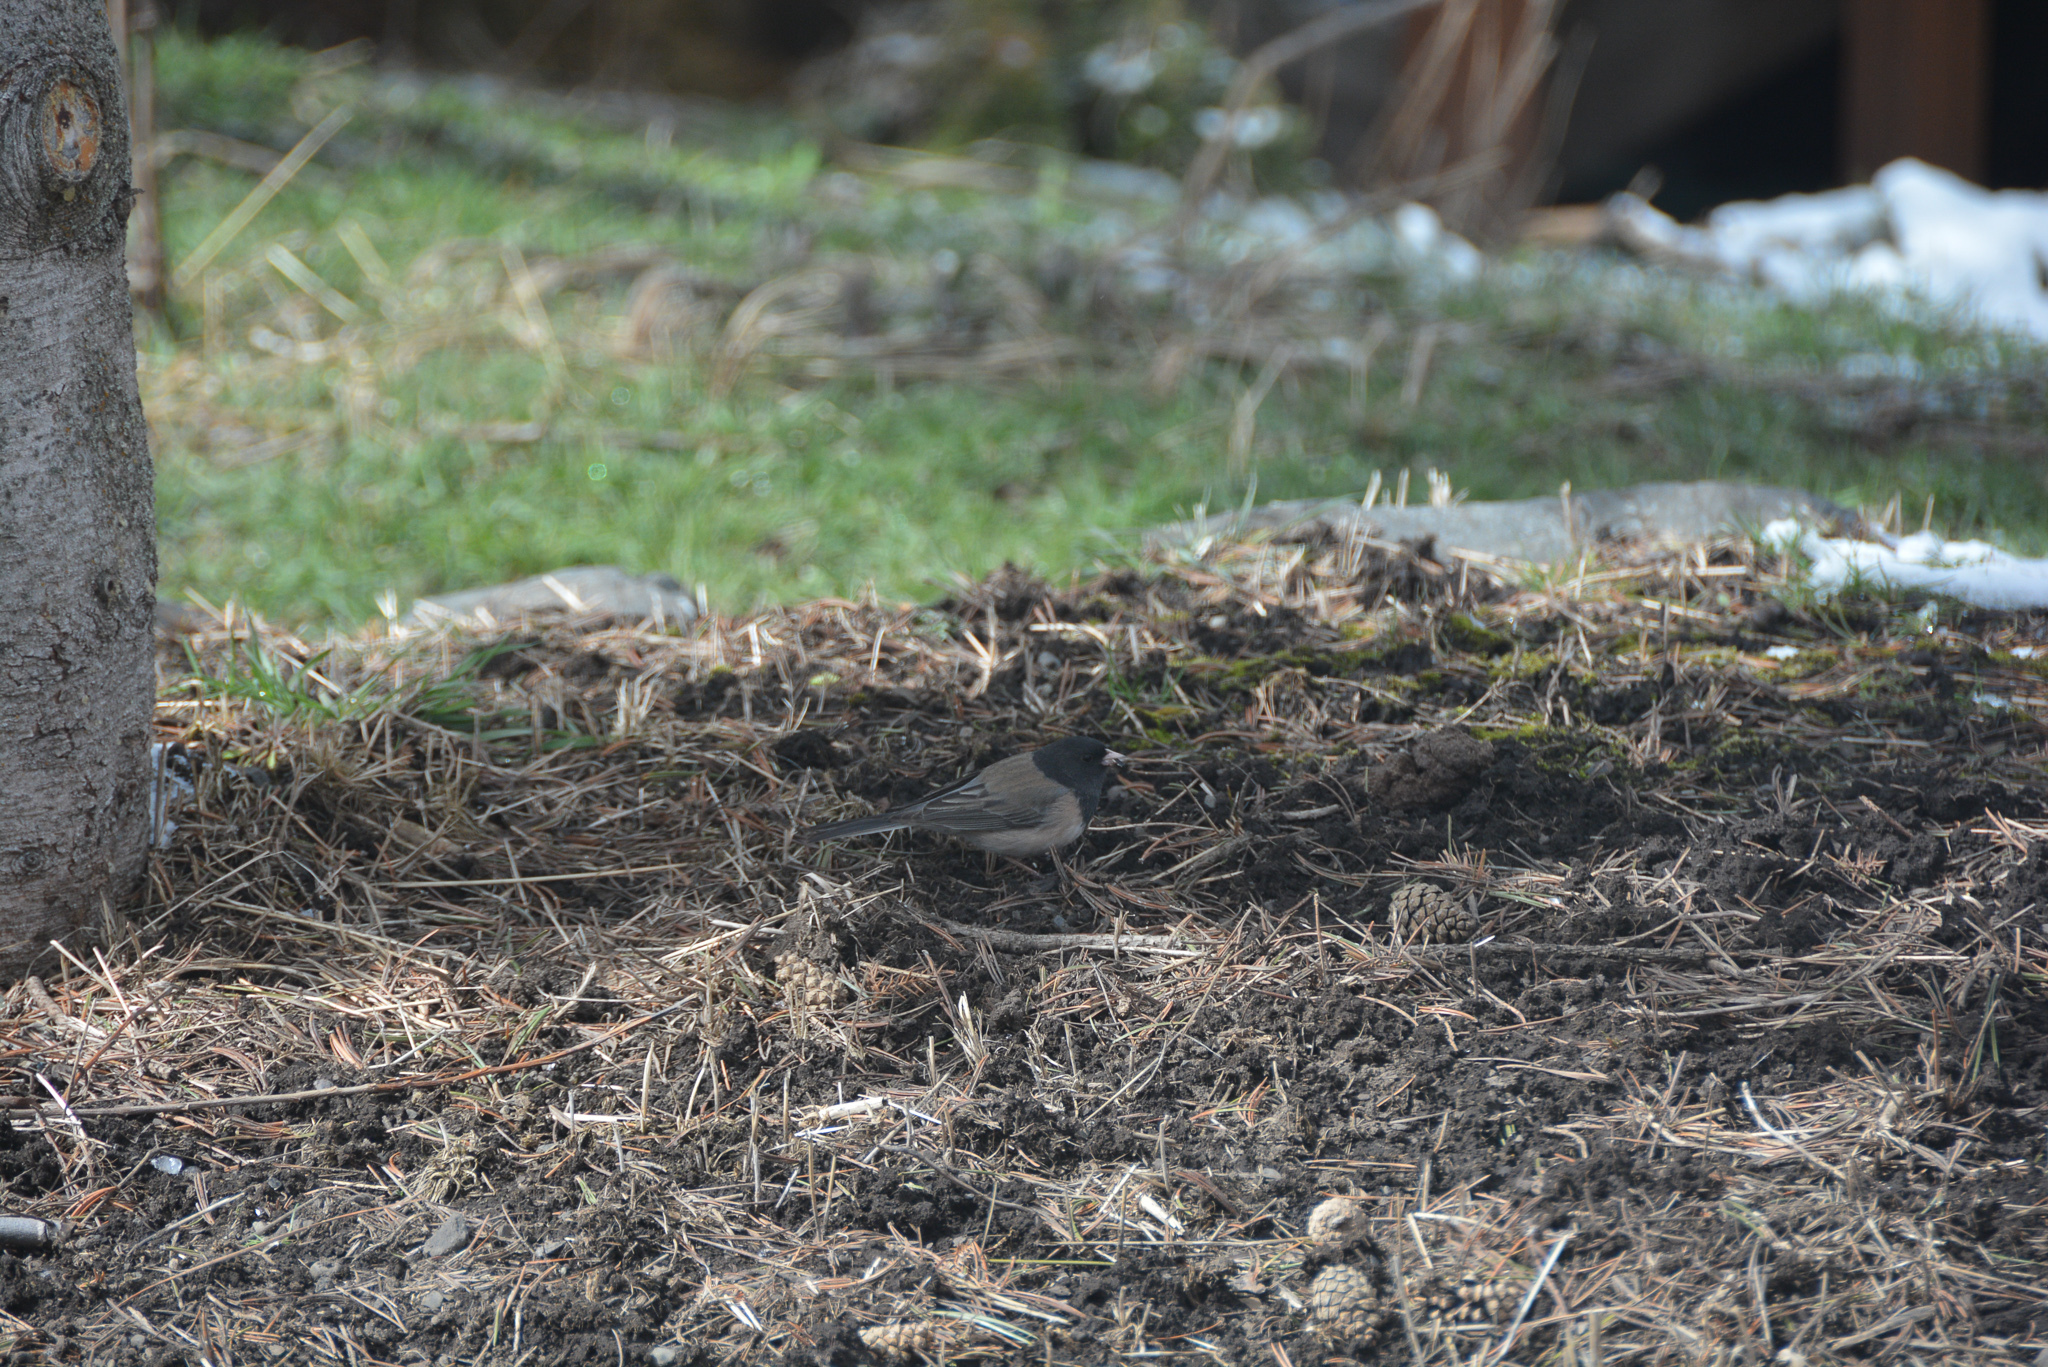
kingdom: Animalia
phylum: Chordata
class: Aves
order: Passeriformes
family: Passerellidae
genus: Junco
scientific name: Junco hyemalis
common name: Dark-eyed junco
